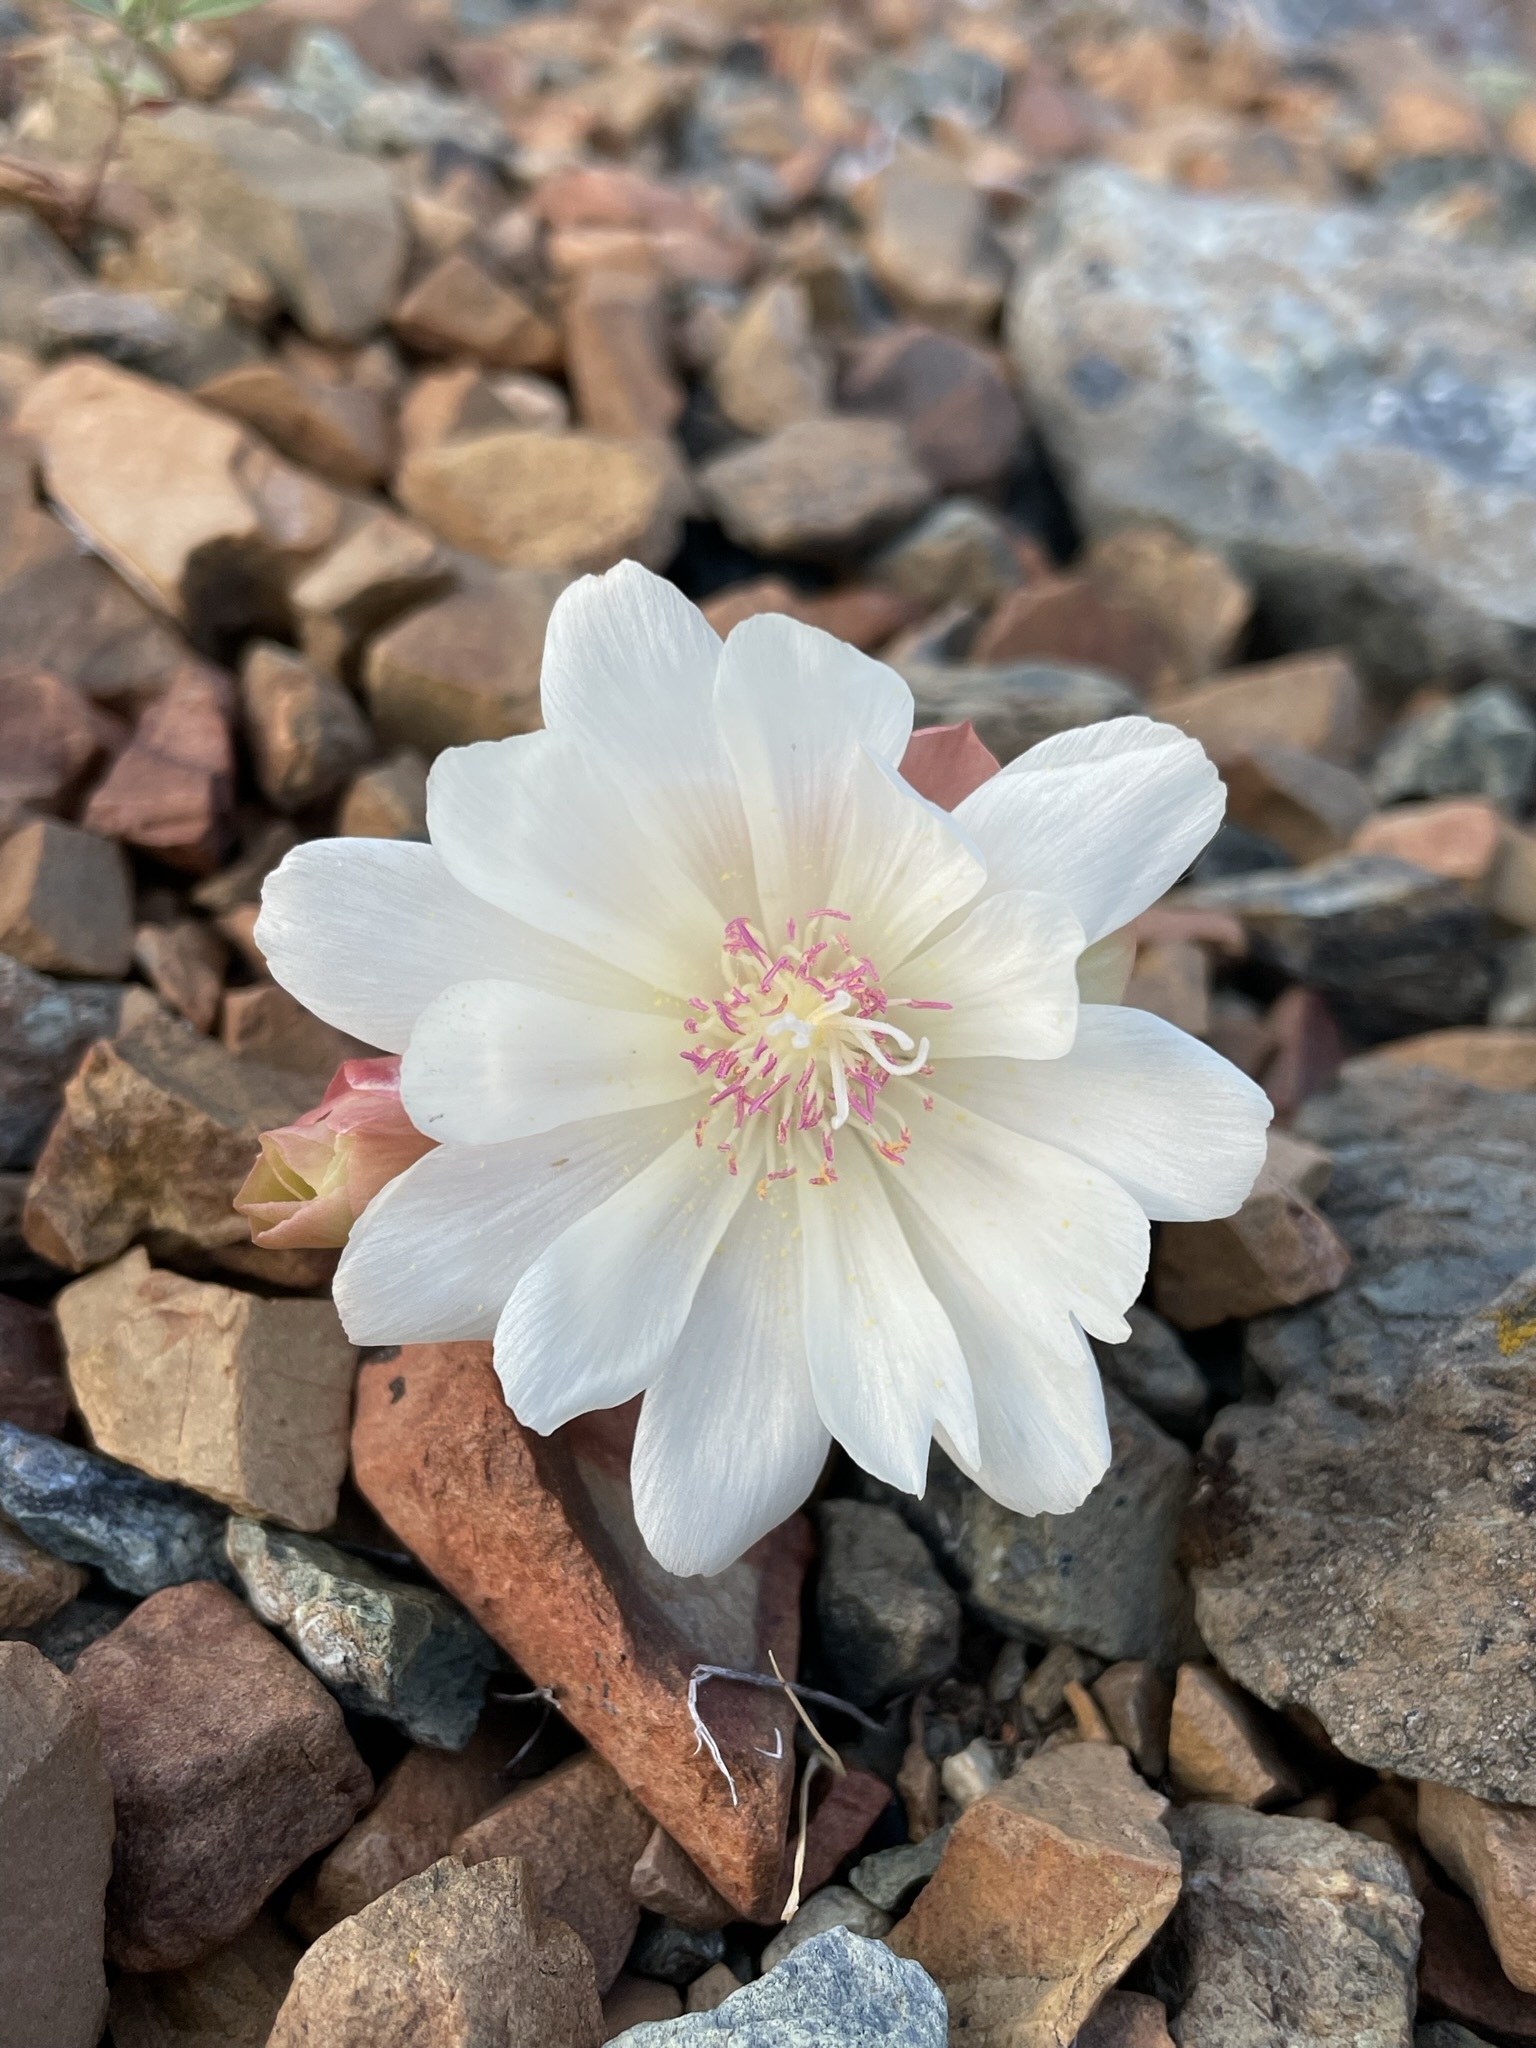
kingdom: Plantae
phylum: Tracheophyta
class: Magnoliopsida
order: Caryophyllales
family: Montiaceae
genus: Lewisia
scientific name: Lewisia rediviva
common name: Bitter-root
